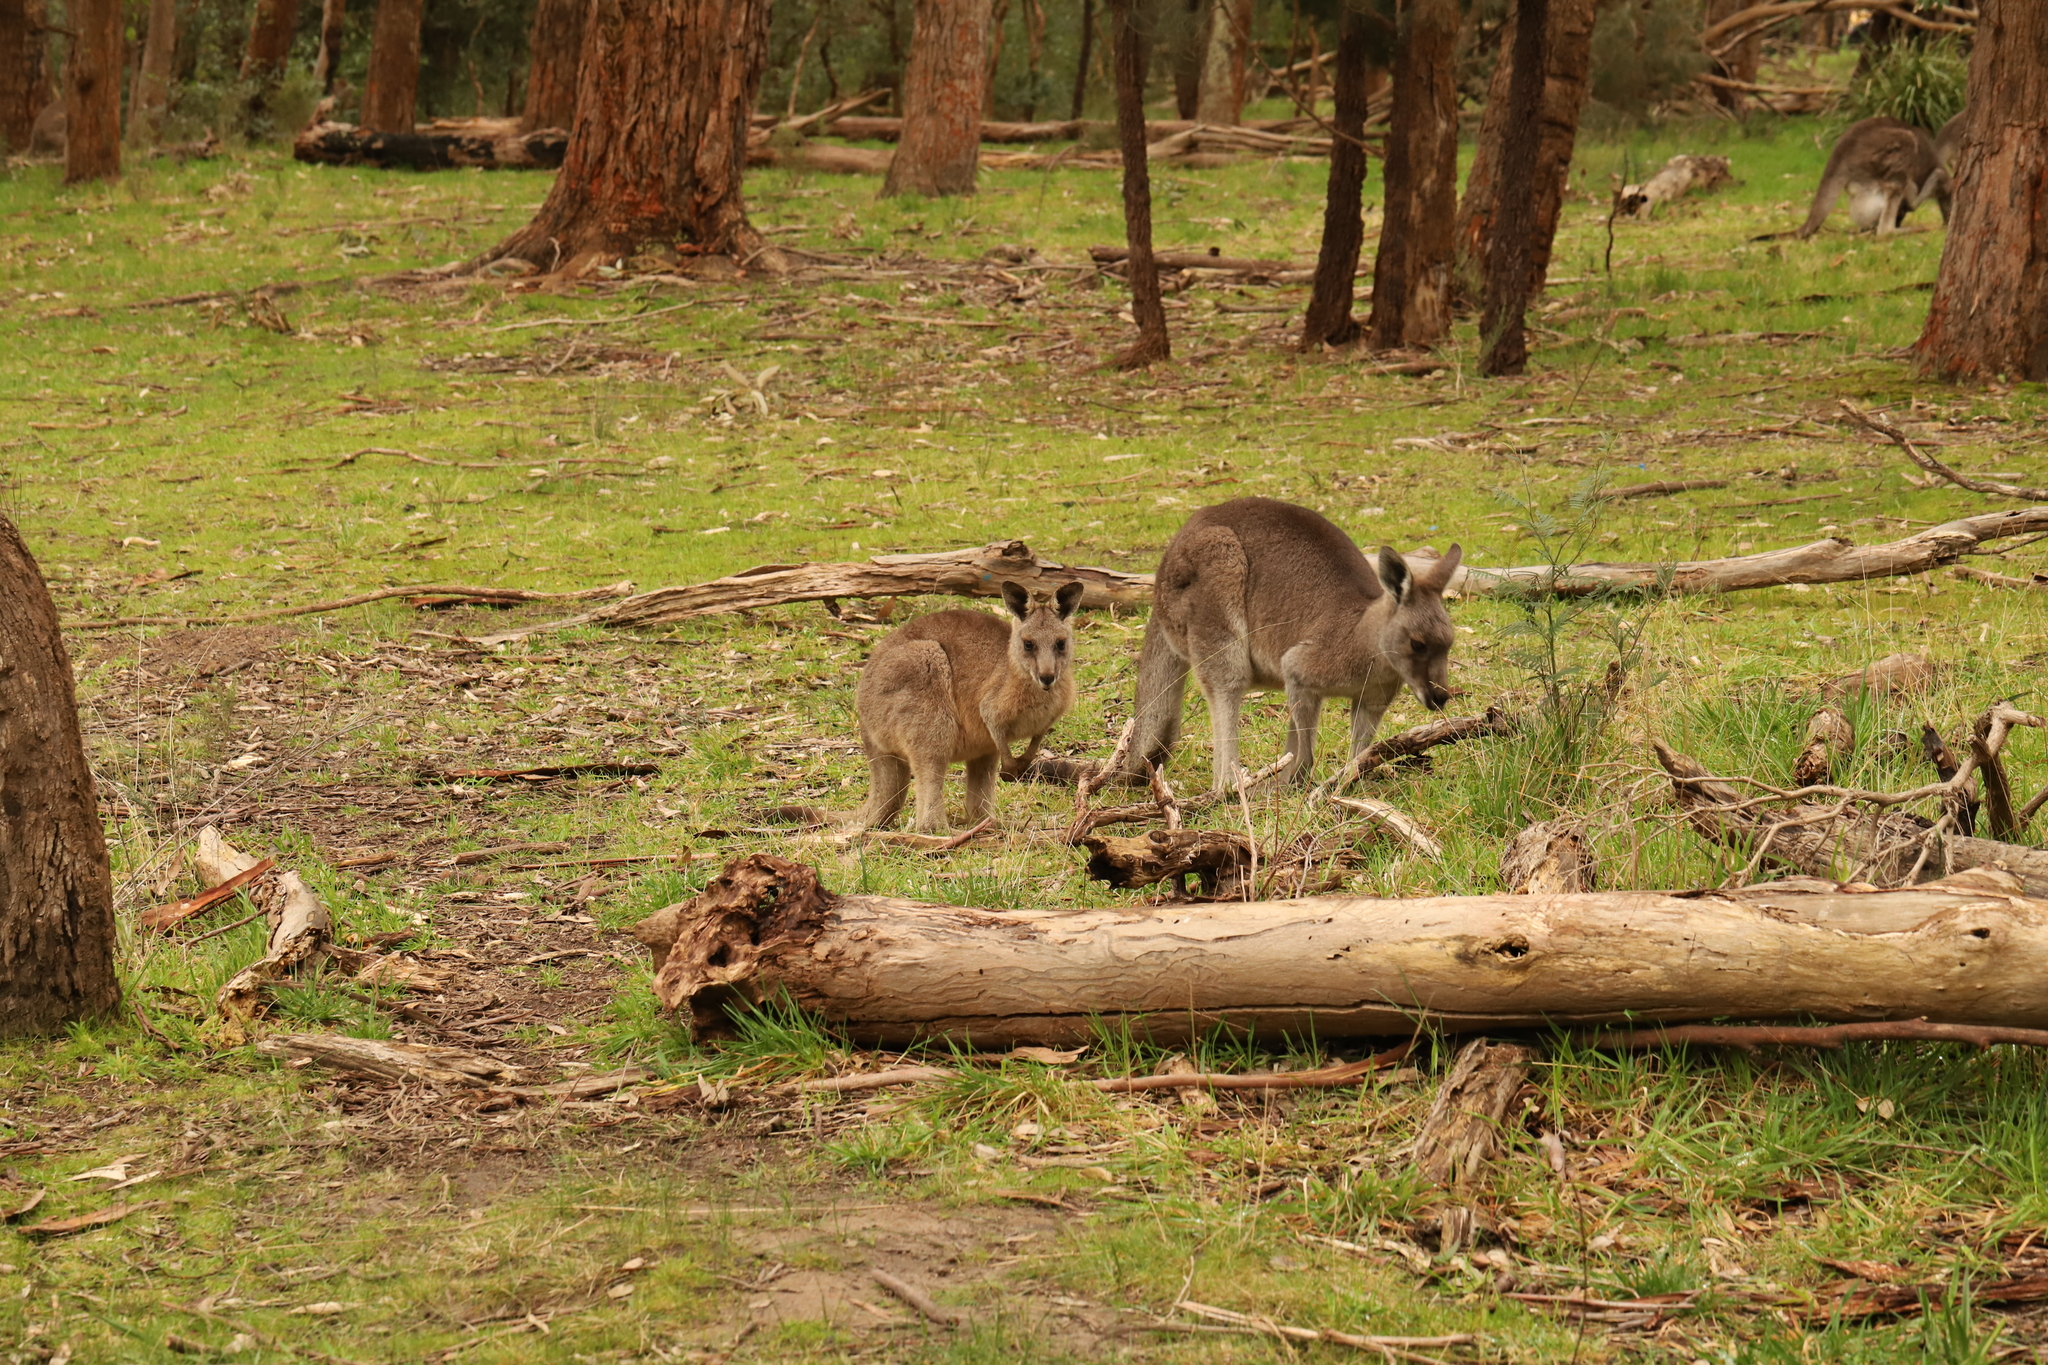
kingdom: Animalia
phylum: Chordata
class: Mammalia
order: Diprotodontia
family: Macropodidae
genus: Macropus
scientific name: Macropus giganteus
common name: Eastern grey kangaroo
